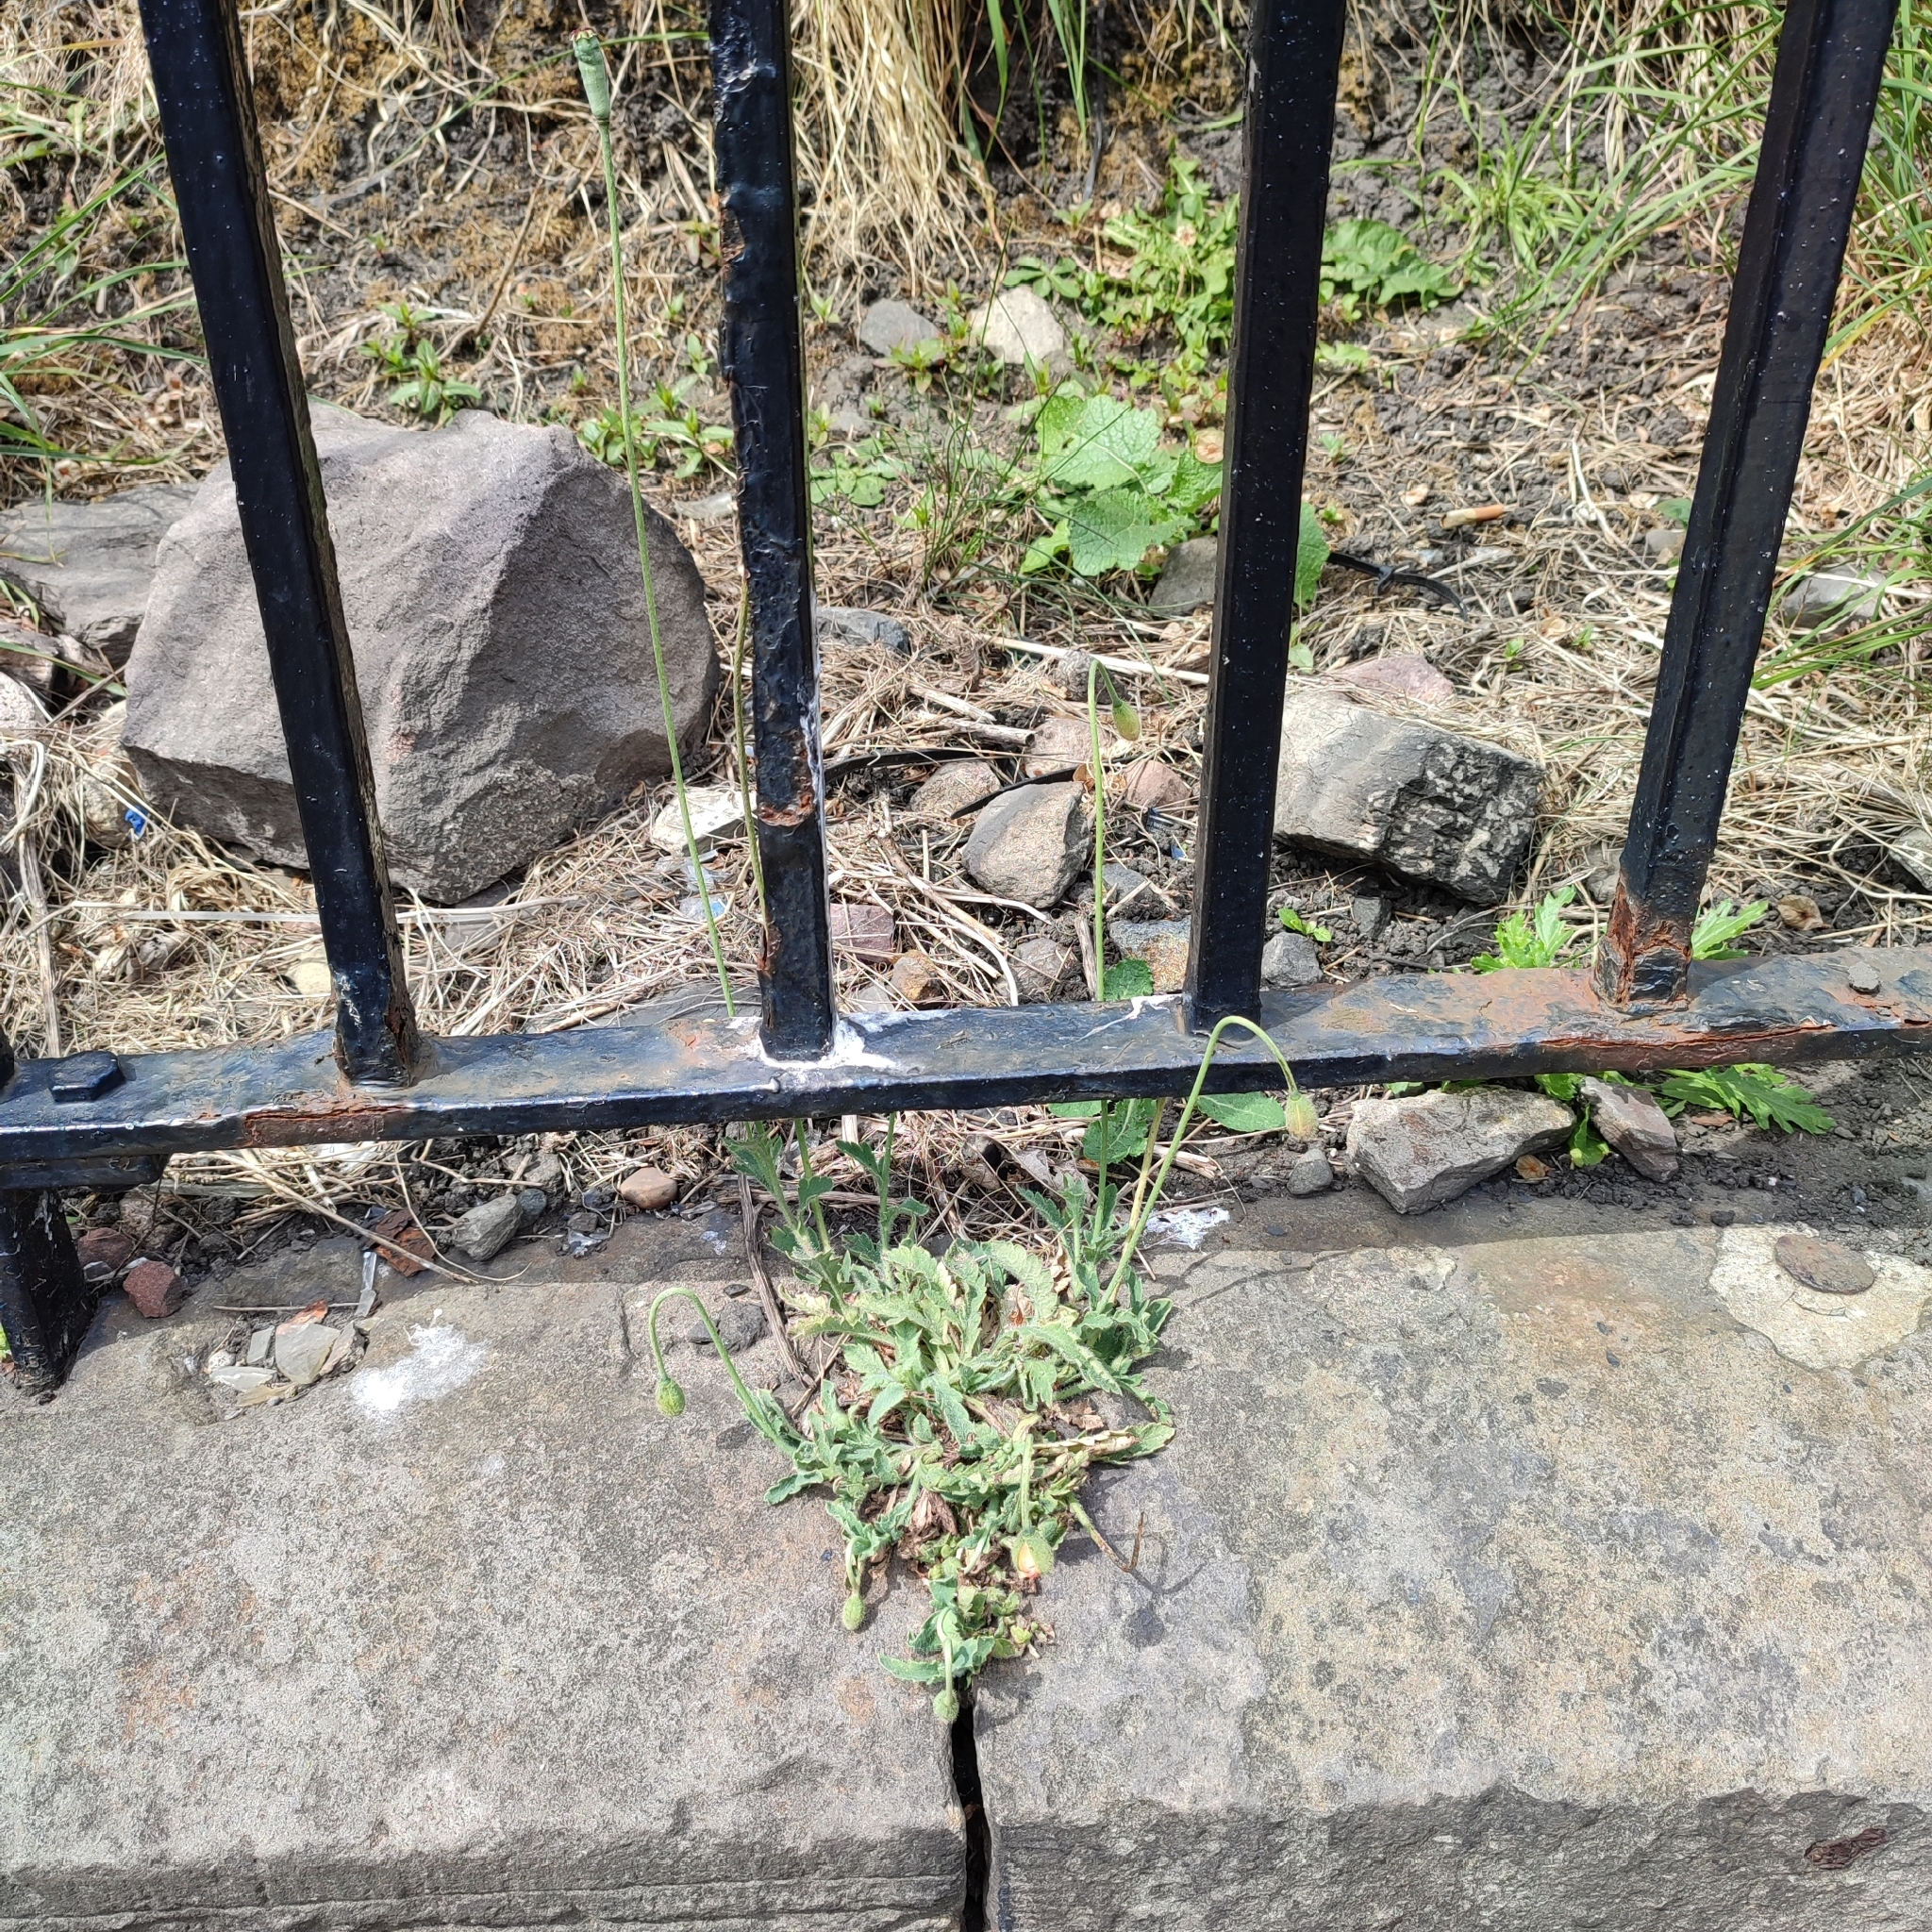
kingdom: Plantae
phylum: Tracheophyta
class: Magnoliopsida
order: Ranunculales
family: Papaveraceae
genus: Papaver
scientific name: Papaver atlanticum
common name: Atlas poppy
